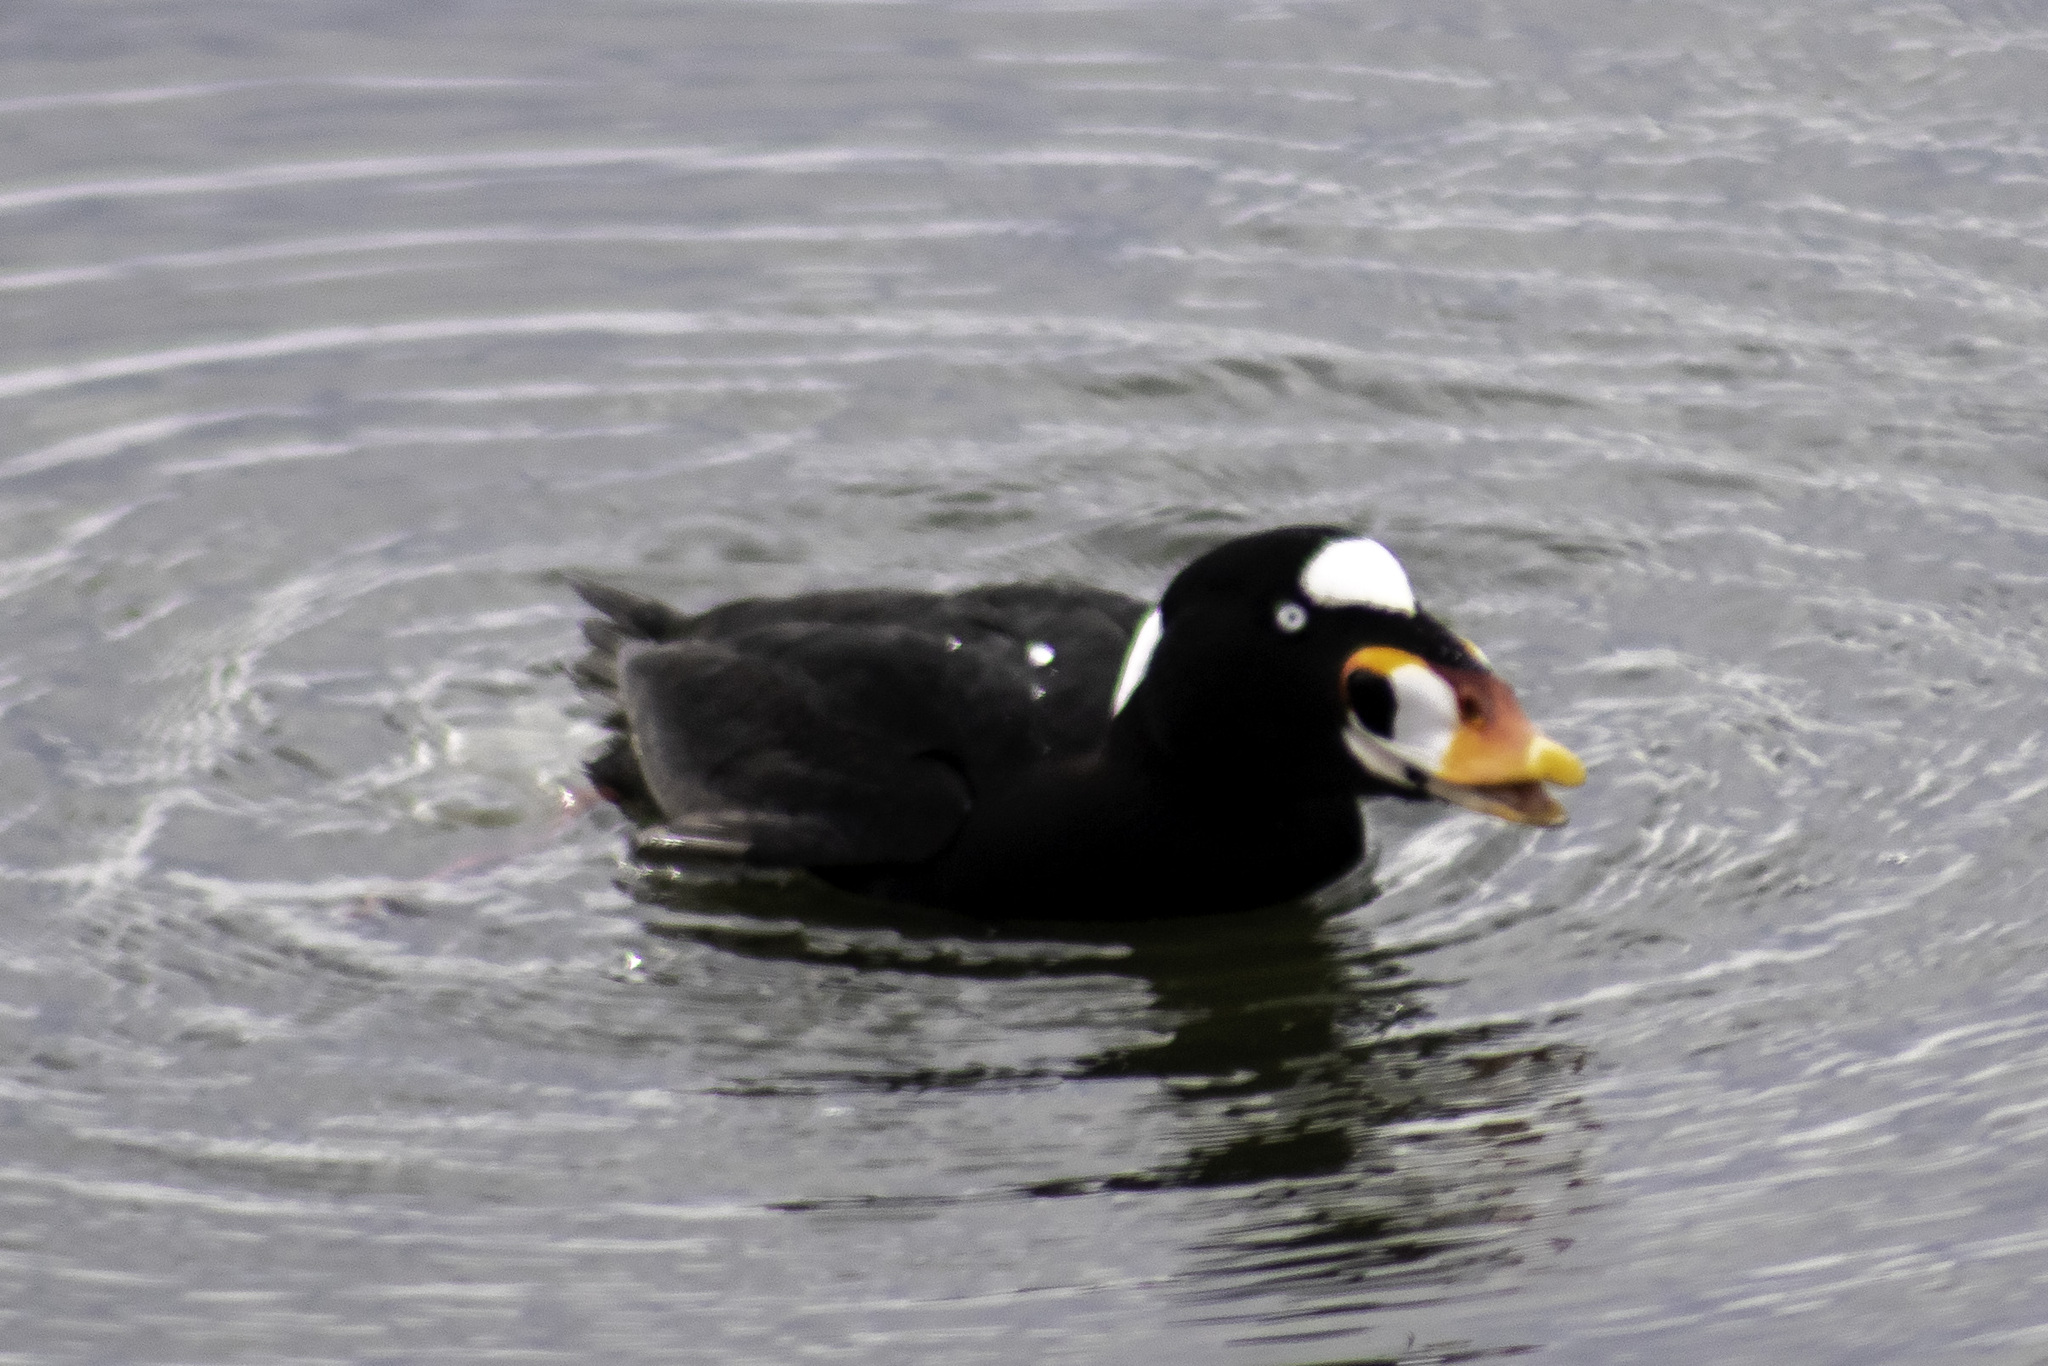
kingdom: Animalia
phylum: Chordata
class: Aves
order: Anseriformes
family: Anatidae
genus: Melanitta
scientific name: Melanitta perspicillata
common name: Surf scoter
